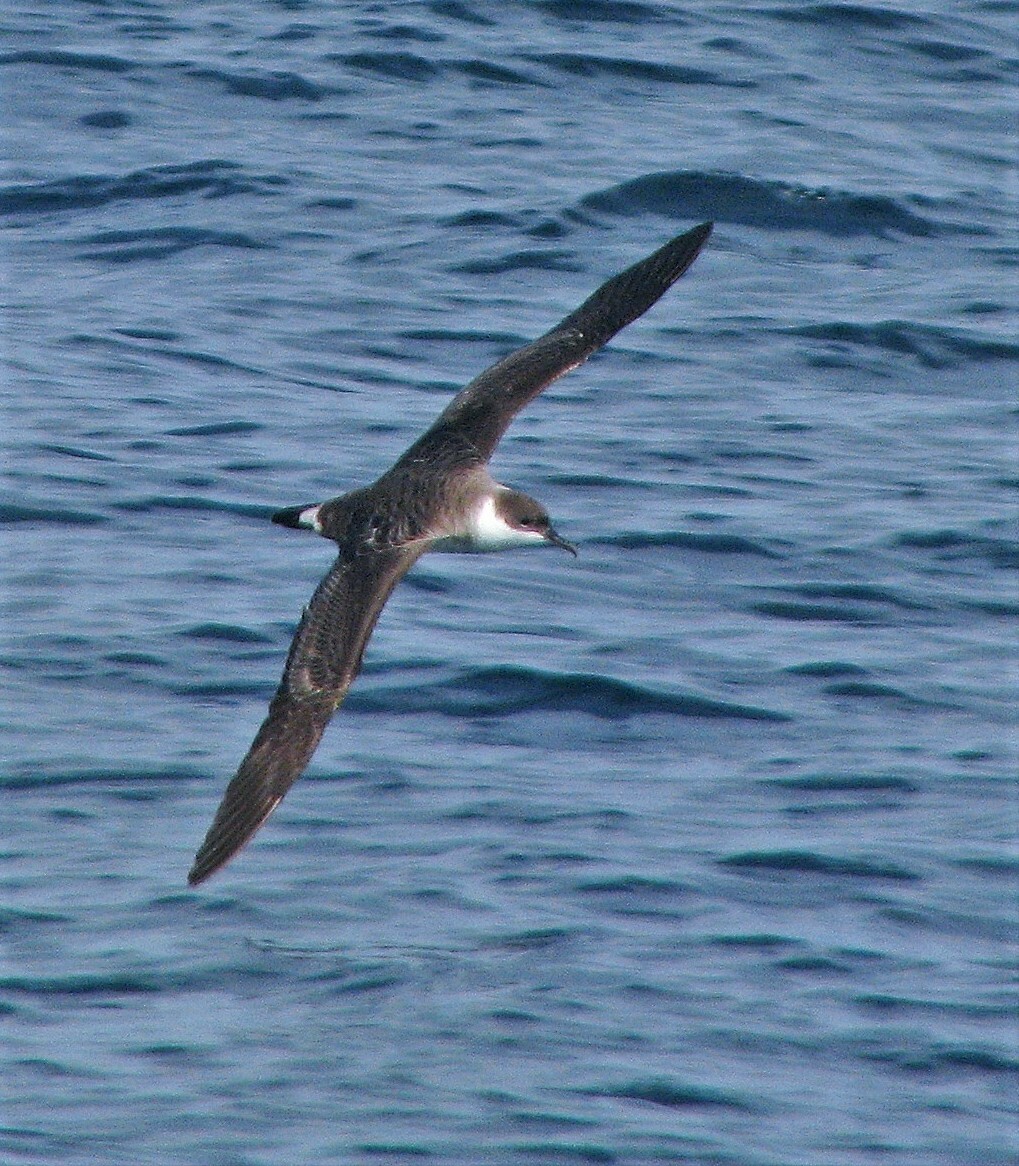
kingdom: Animalia
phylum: Chordata
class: Aves
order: Procellariiformes
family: Procellariidae
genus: Puffinus
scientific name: Puffinus gravis
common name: Great shearwater
